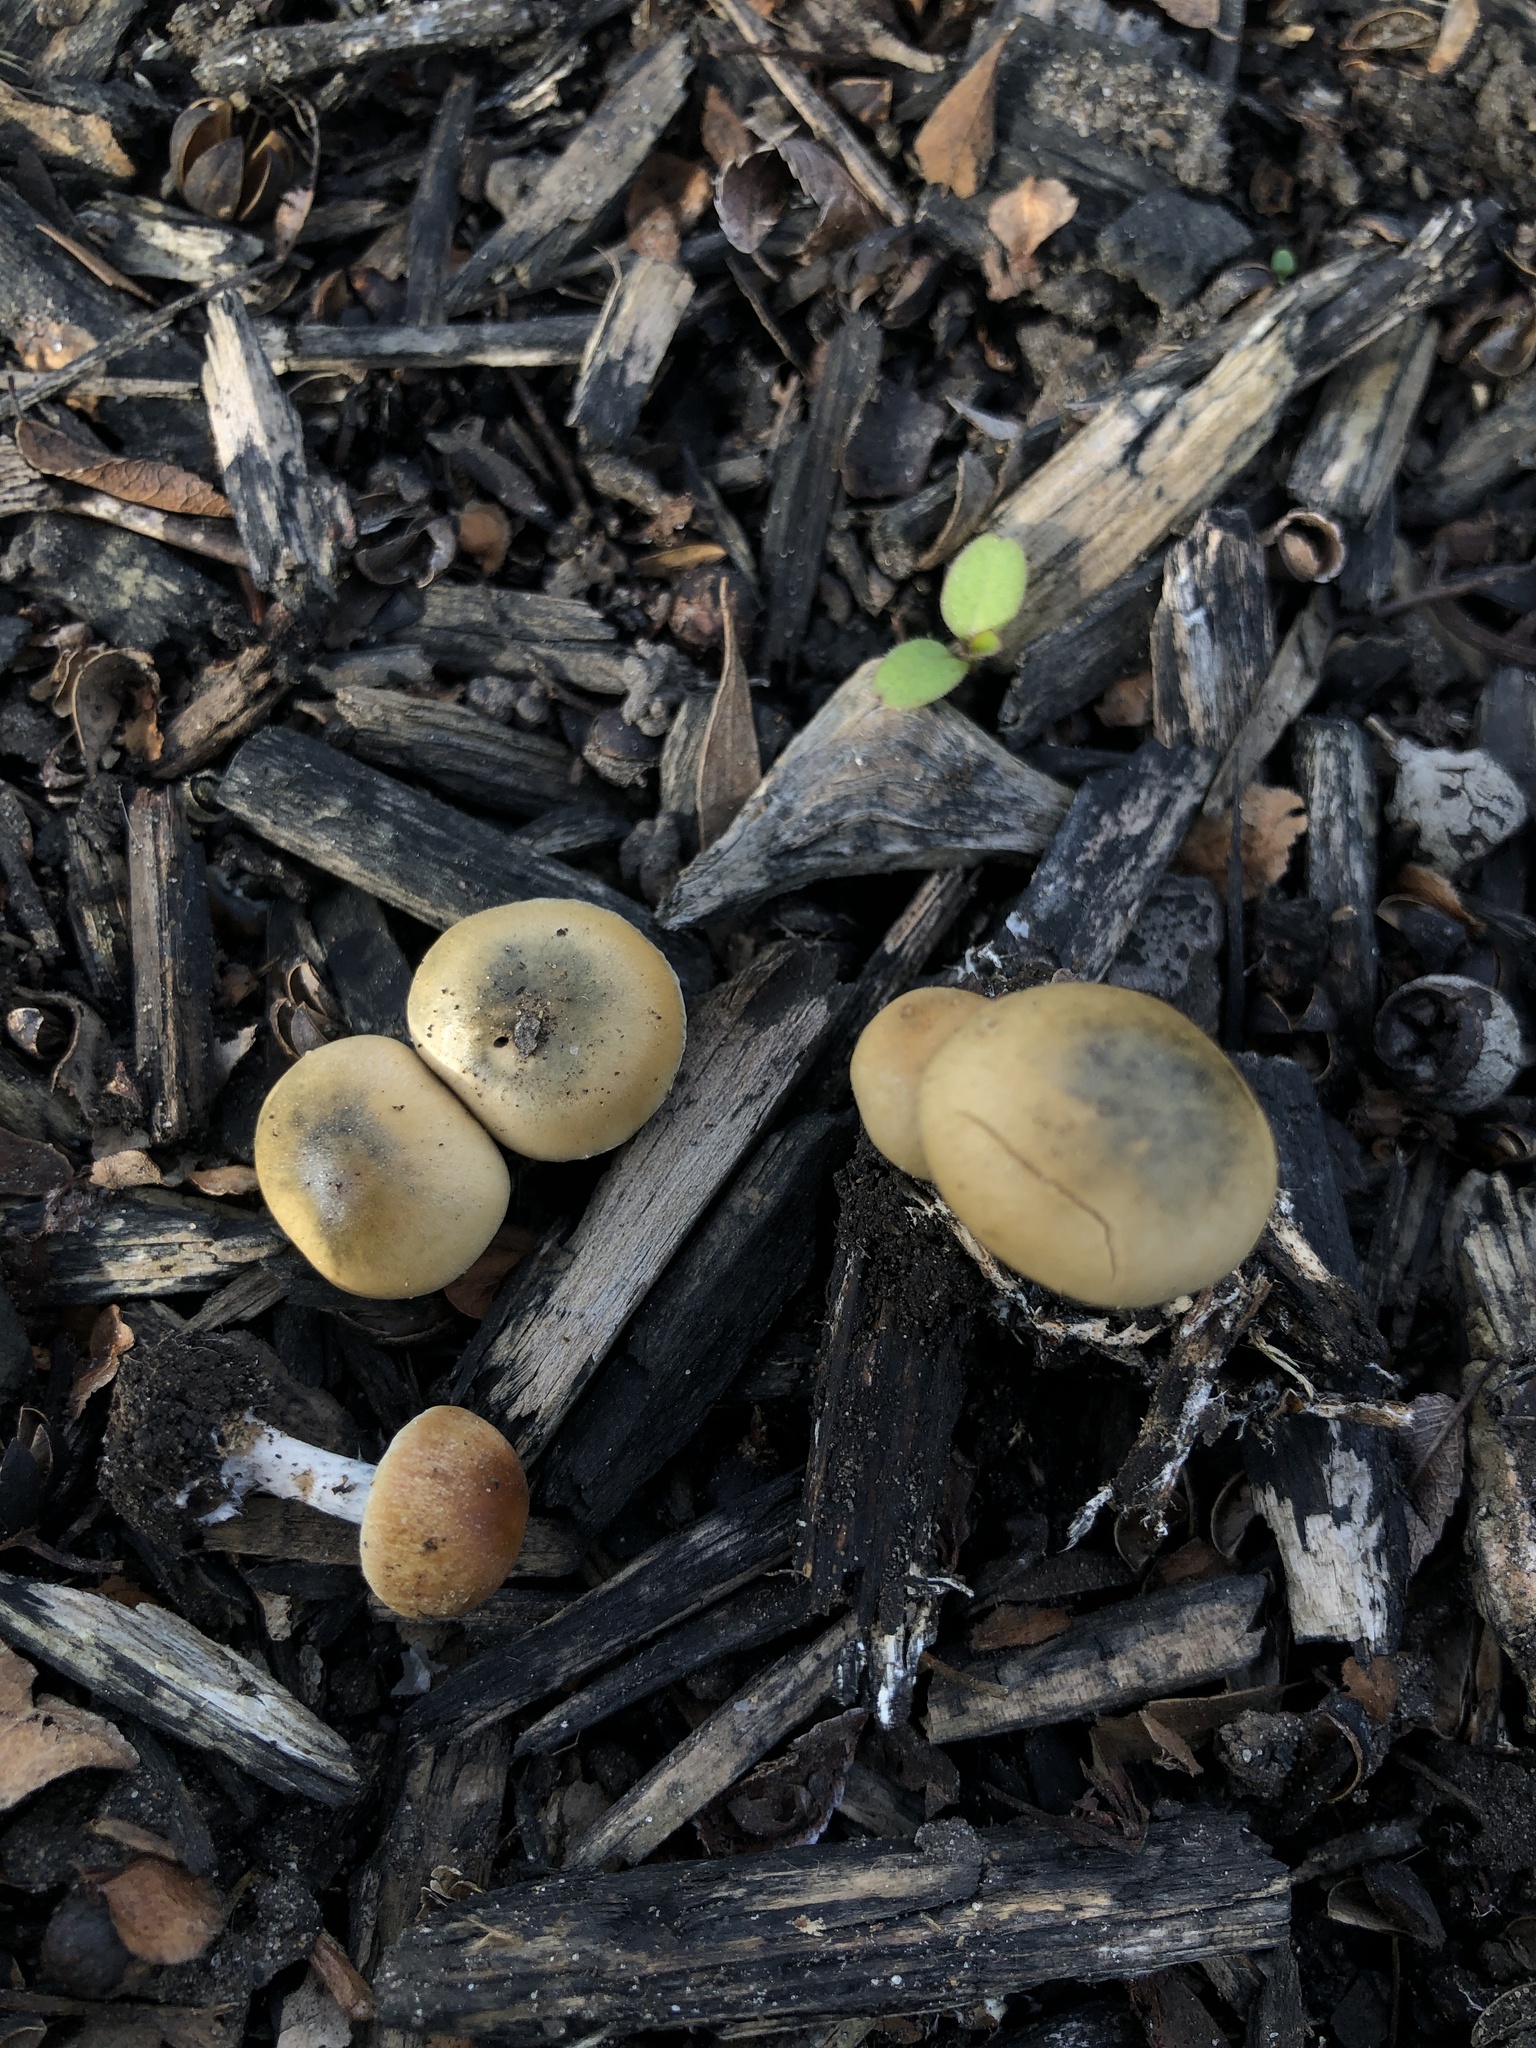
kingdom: Fungi
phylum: Basidiomycota
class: Agaricomycetes
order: Agaricales
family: Hymenogastraceae
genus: Psilocybe
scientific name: Psilocybe allenii
